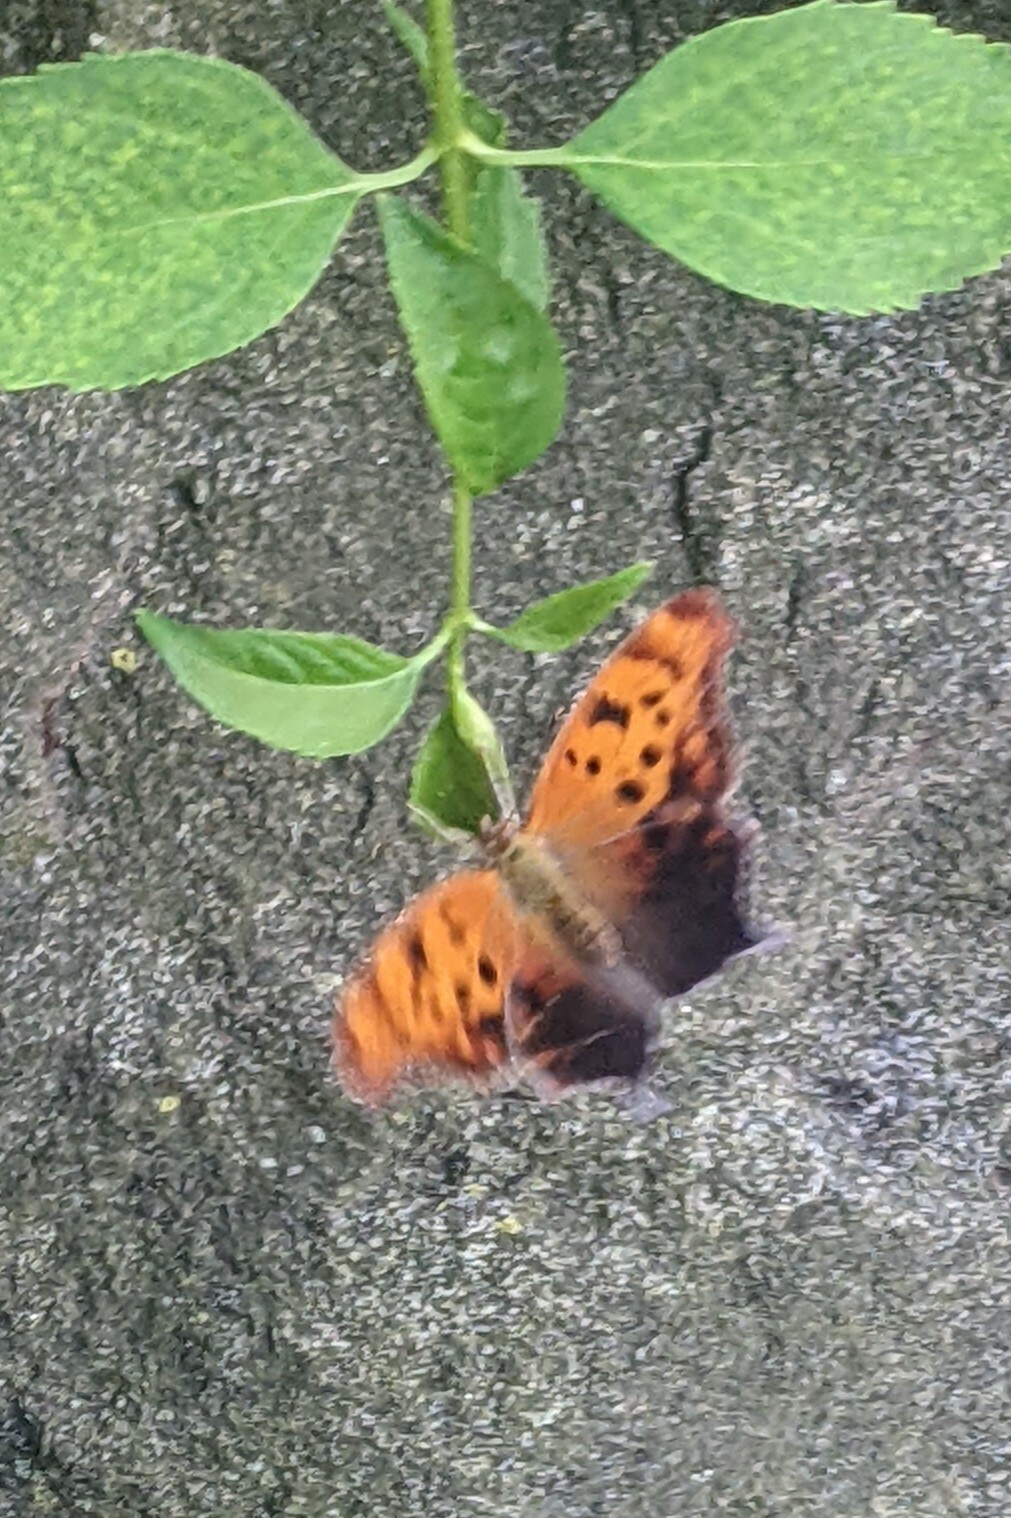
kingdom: Animalia
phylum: Arthropoda
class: Insecta
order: Lepidoptera
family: Nymphalidae
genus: Polygonia
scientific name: Polygonia interrogationis
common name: Question mark
